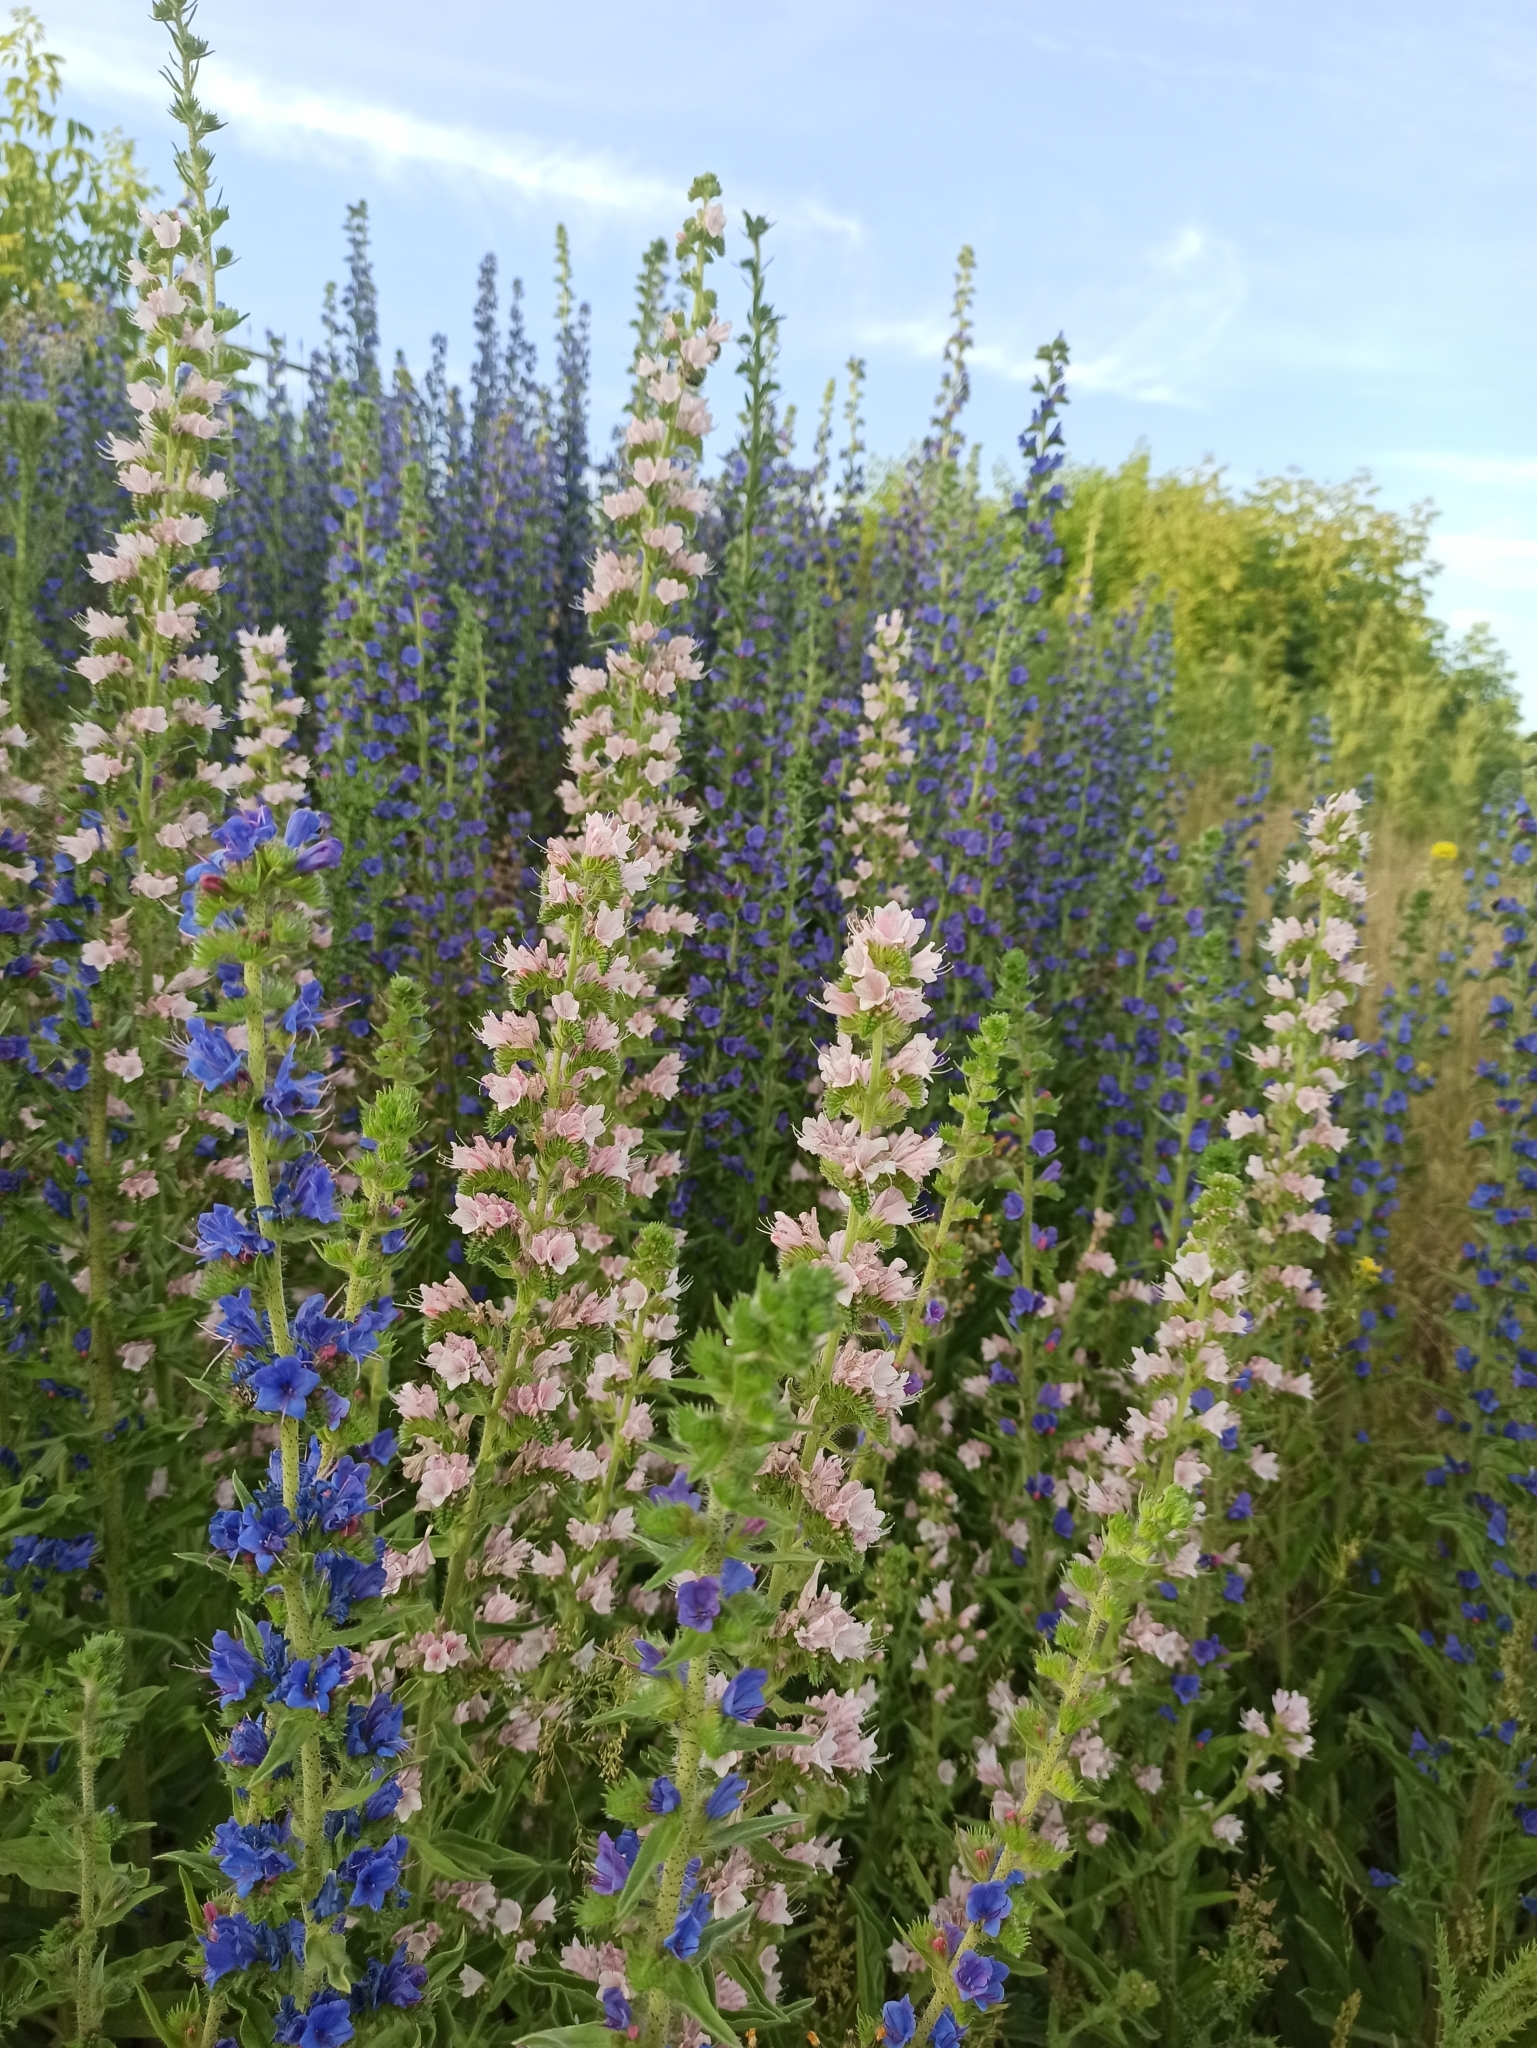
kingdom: Plantae
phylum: Tracheophyta
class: Magnoliopsida
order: Boraginales
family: Boraginaceae
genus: Echium
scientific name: Echium vulgare
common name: Common viper's bugloss
